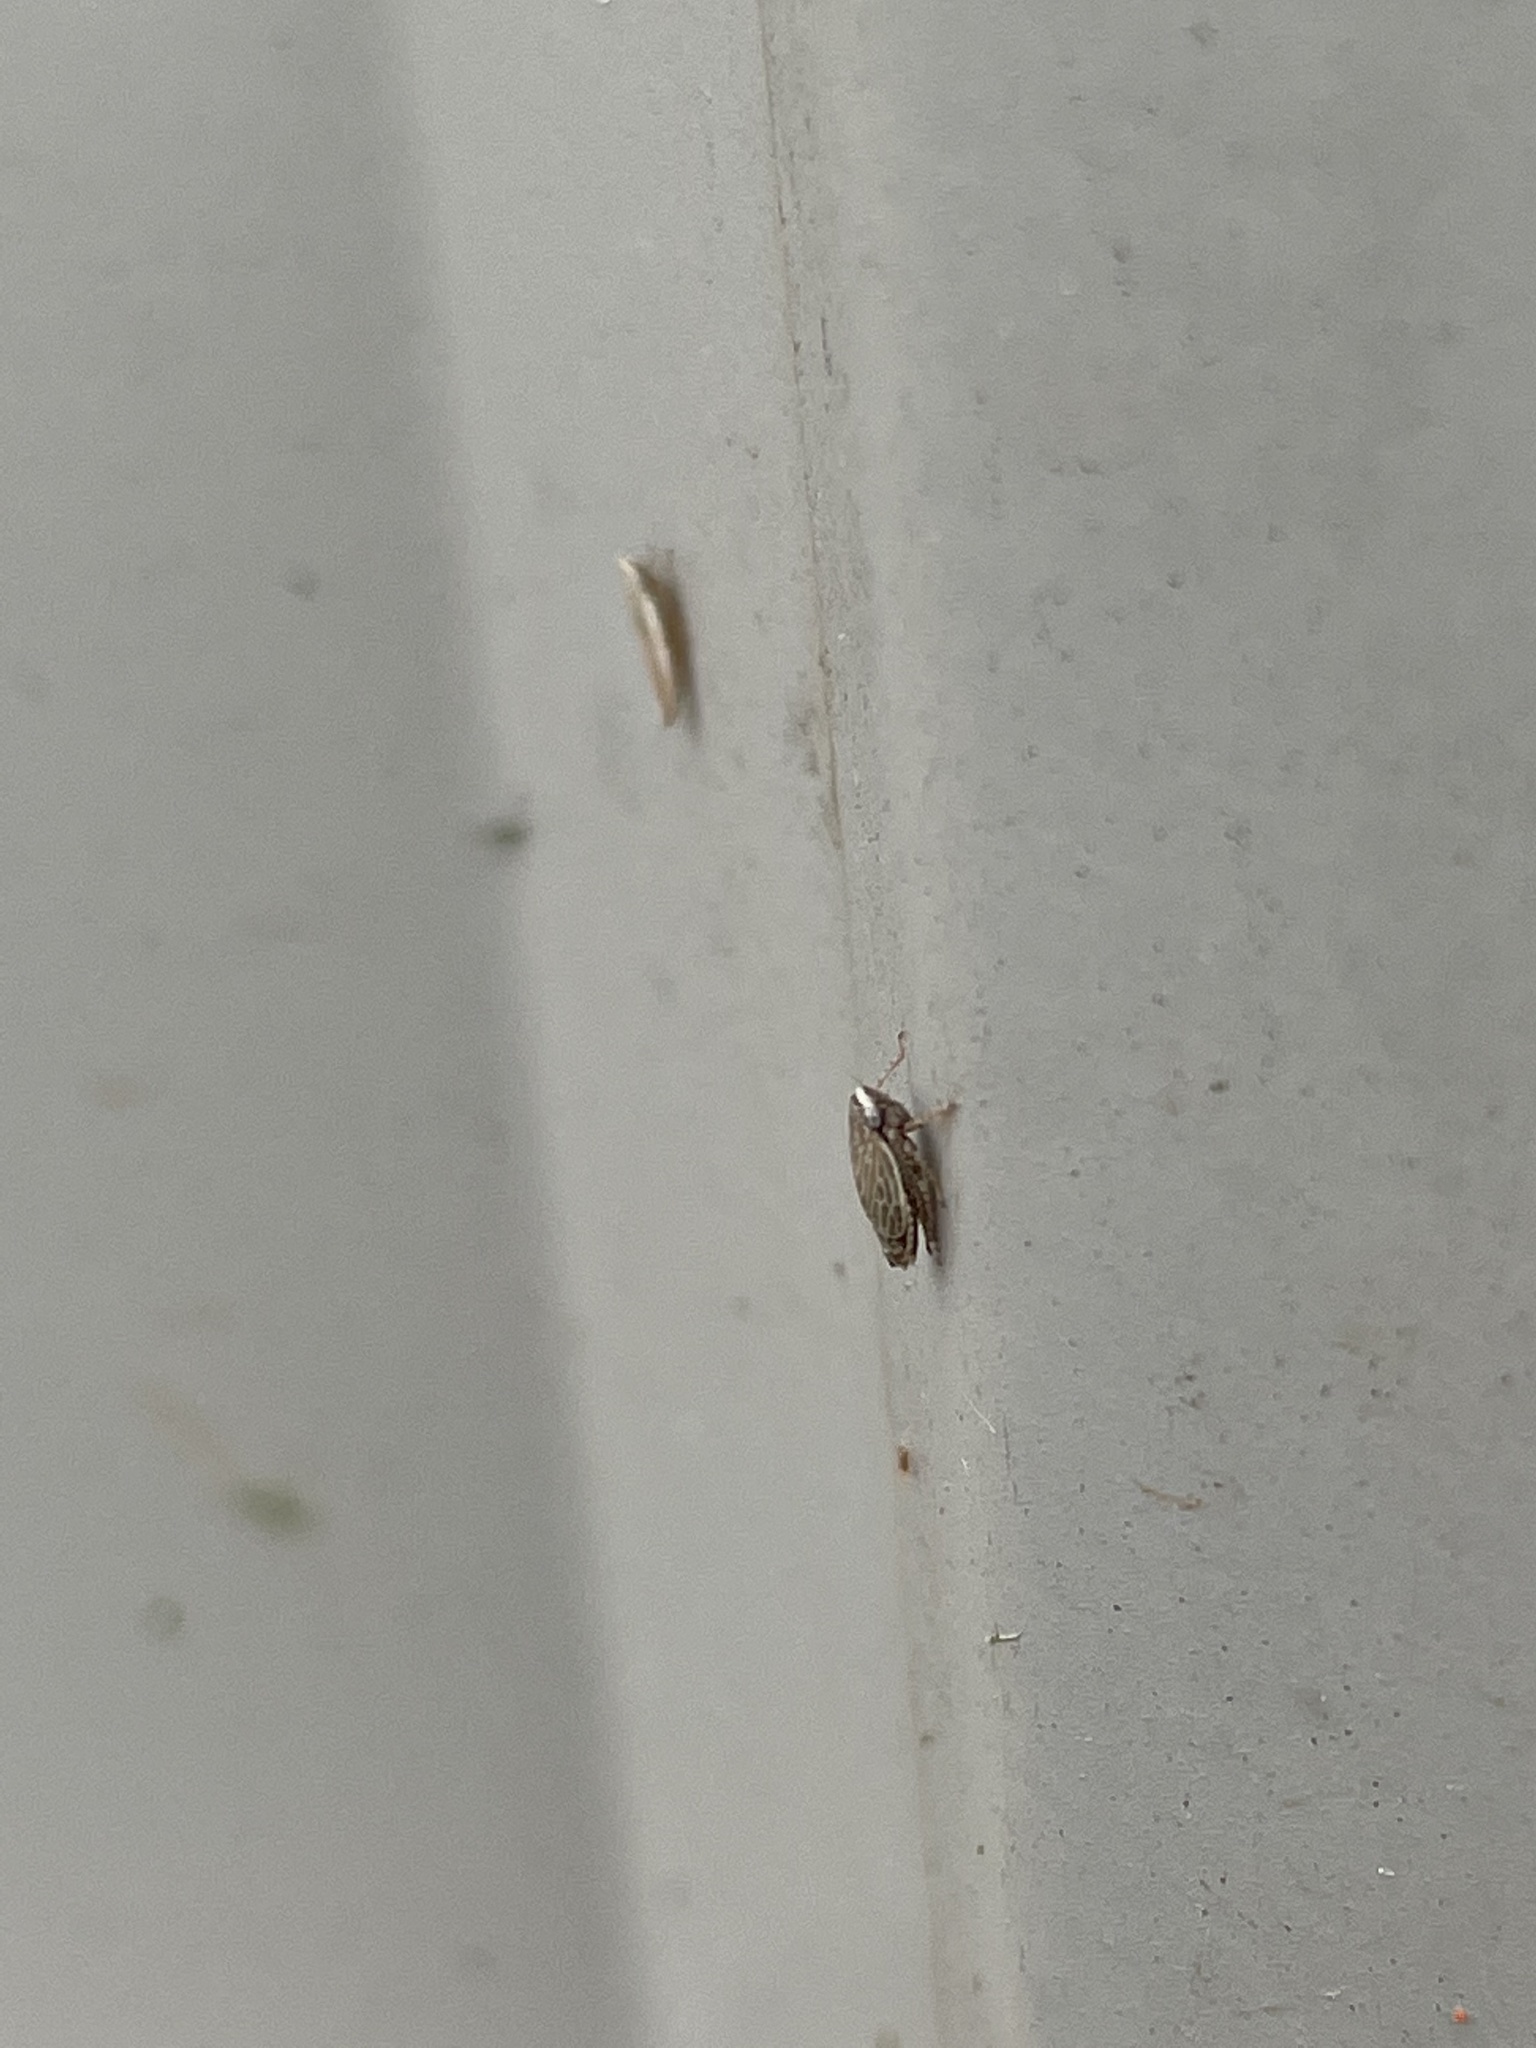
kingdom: Animalia
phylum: Arthropoda
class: Insecta
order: Hemiptera
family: Cicadellidae
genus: Extrusanus
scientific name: Extrusanus ovatus
